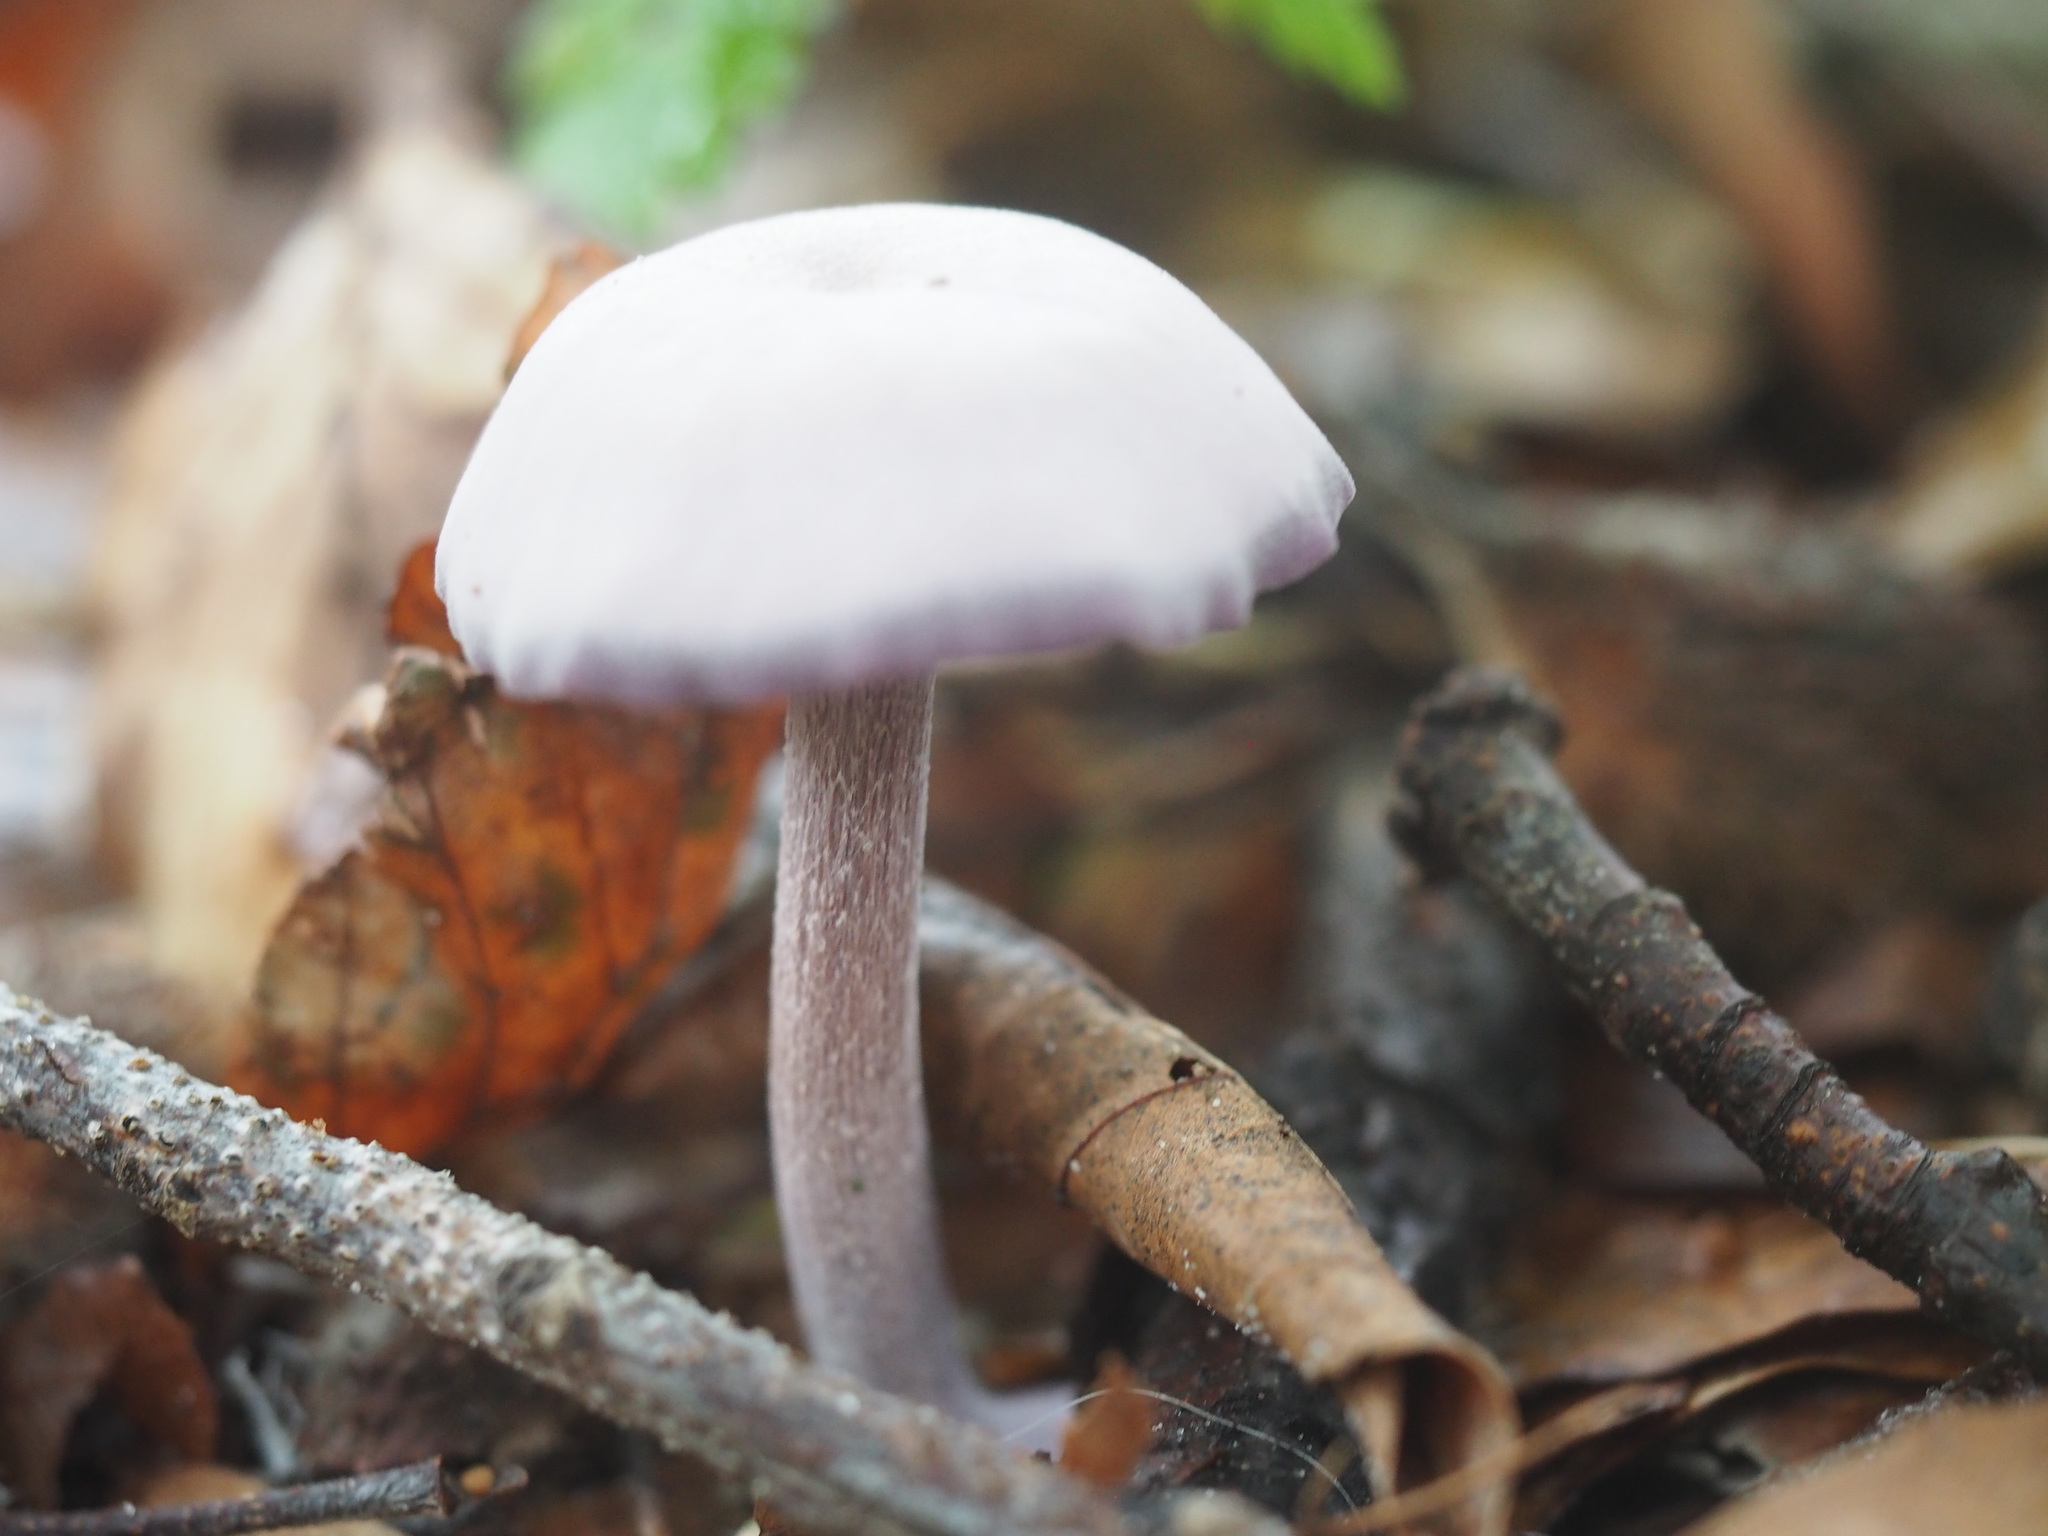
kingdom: Fungi
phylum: Basidiomycota
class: Agaricomycetes
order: Agaricales
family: Hydnangiaceae
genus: Laccaria
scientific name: Laccaria amethystina
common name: Amethyst deceiver
